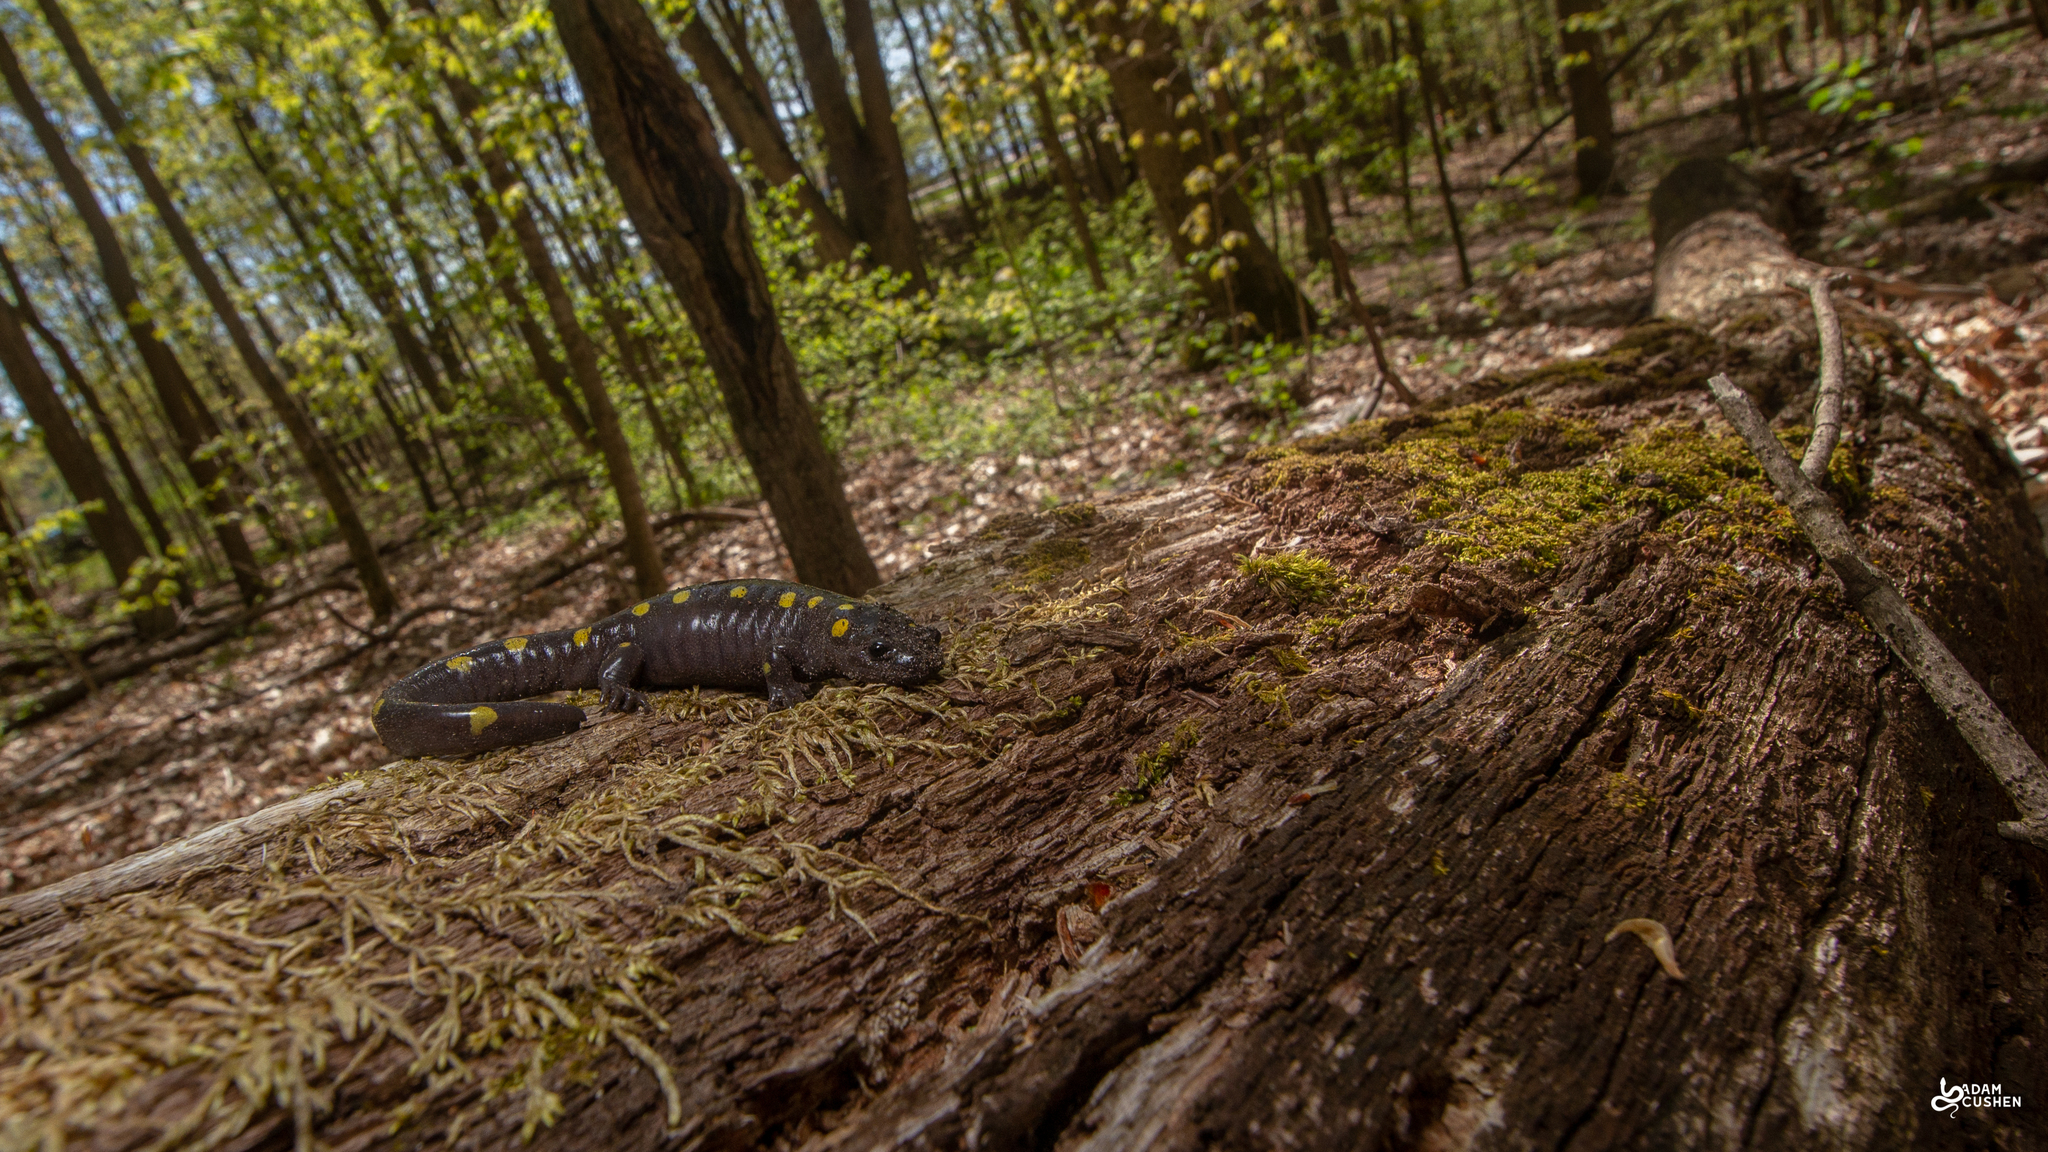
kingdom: Animalia
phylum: Chordata
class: Amphibia
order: Caudata
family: Ambystomatidae
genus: Ambystoma
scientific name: Ambystoma maculatum
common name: Spotted salamander
